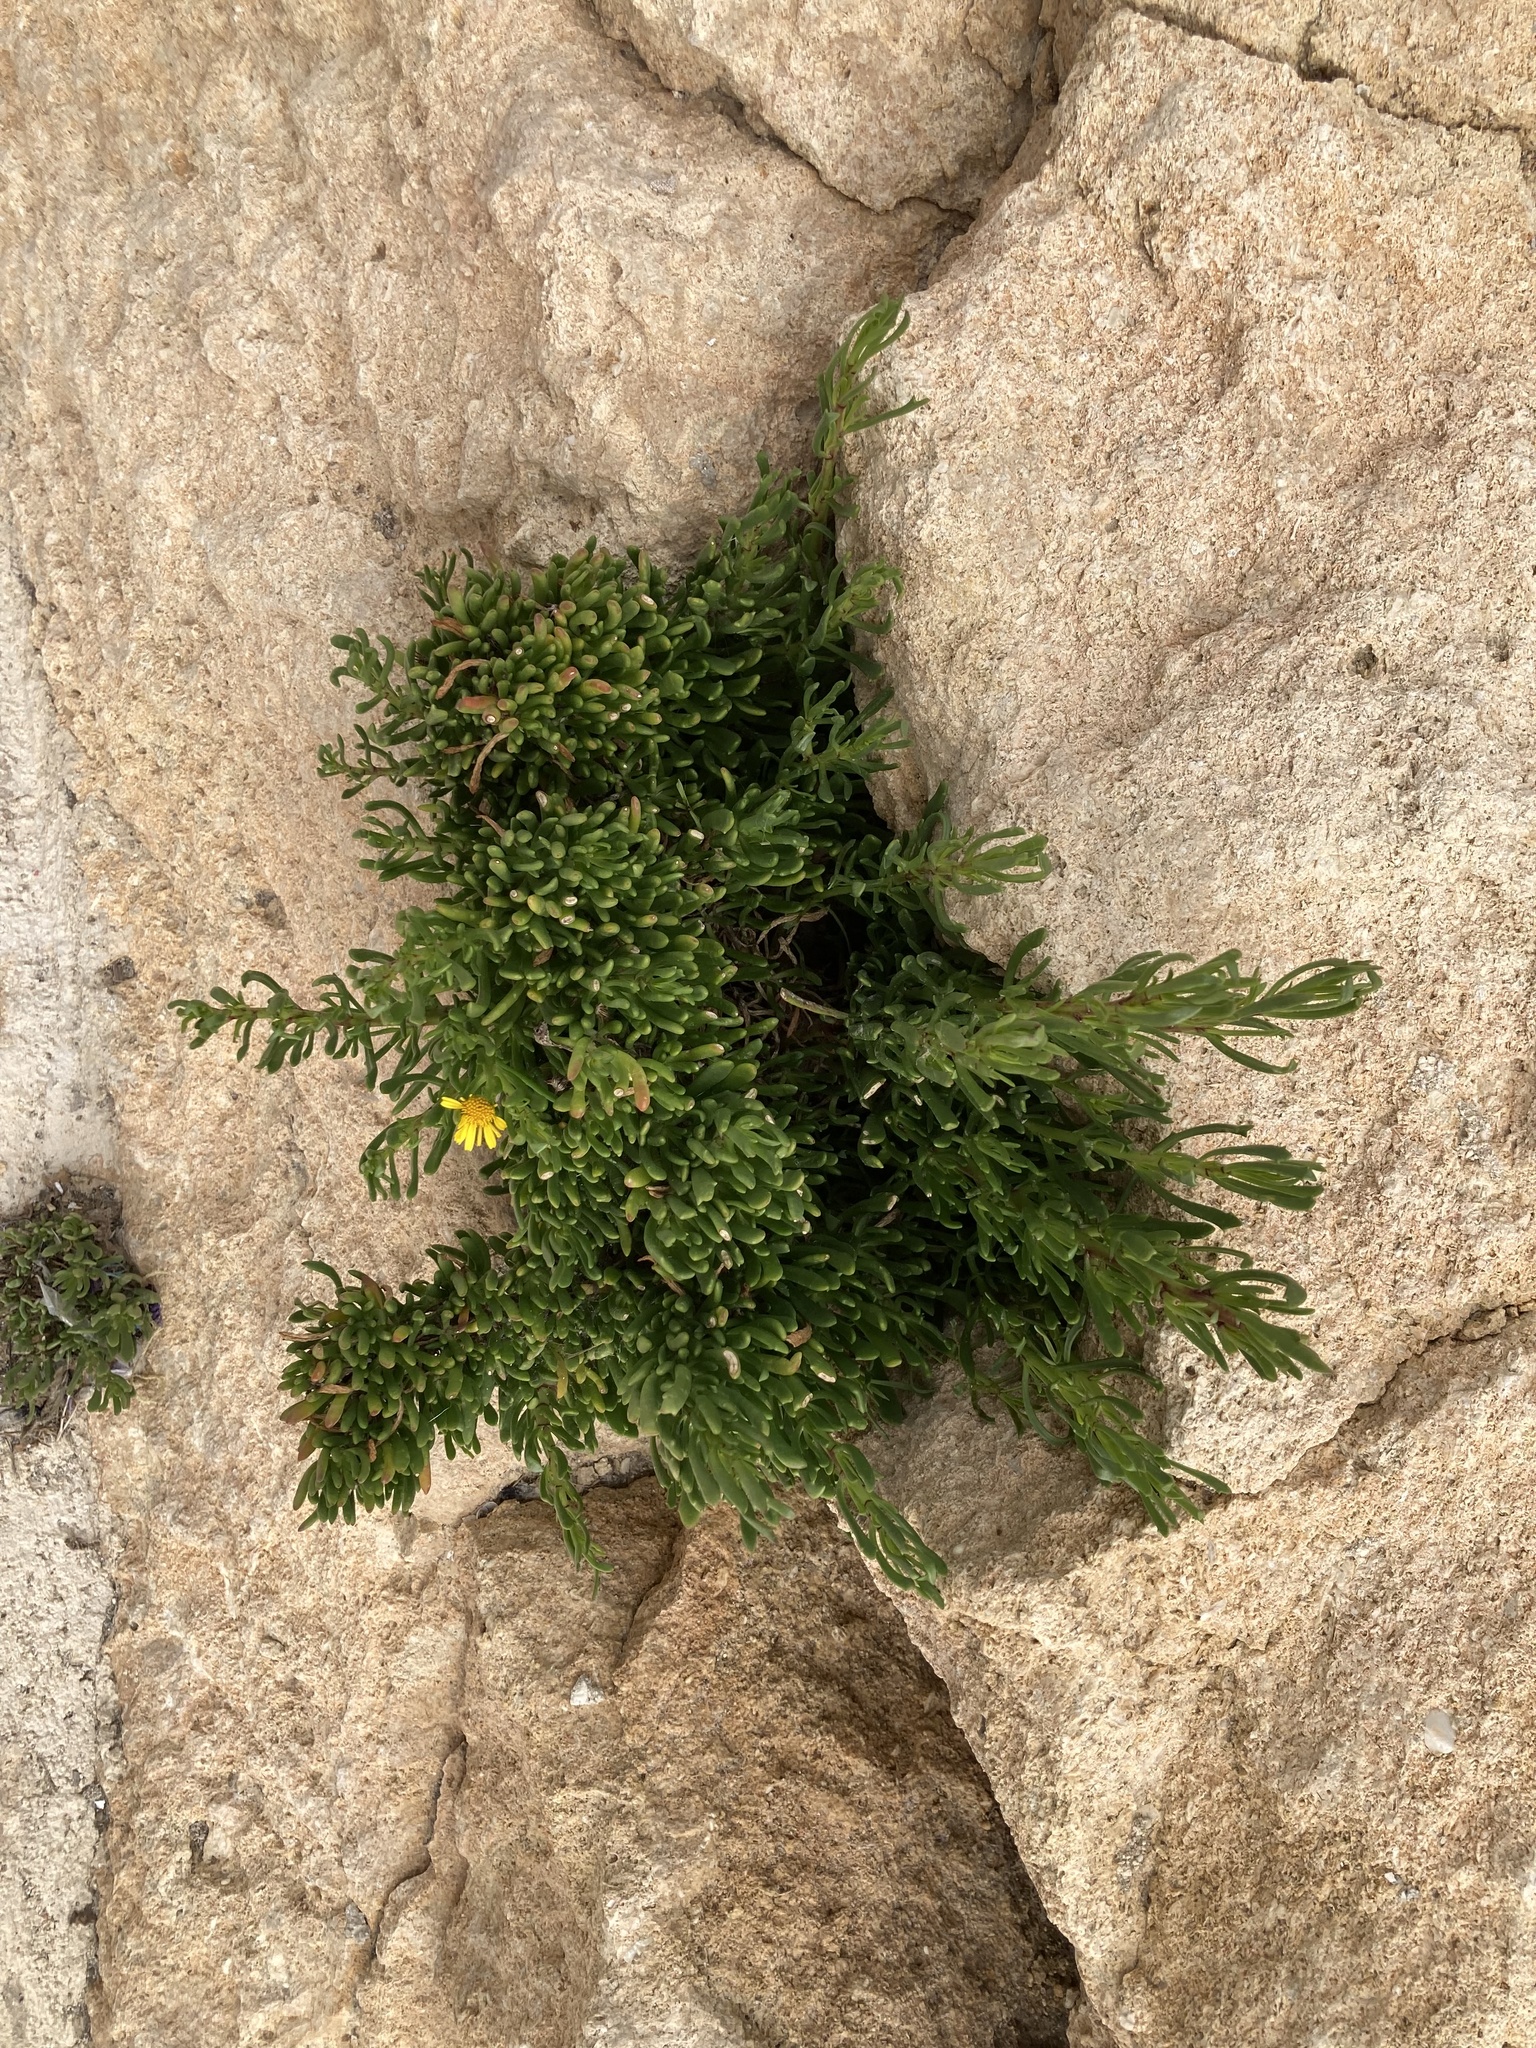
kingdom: Plantae
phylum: Tracheophyta
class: Magnoliopsida
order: Asterales
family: Asteraceae
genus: Limbarda
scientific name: Limbarda crithmoides
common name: Golden samphire
